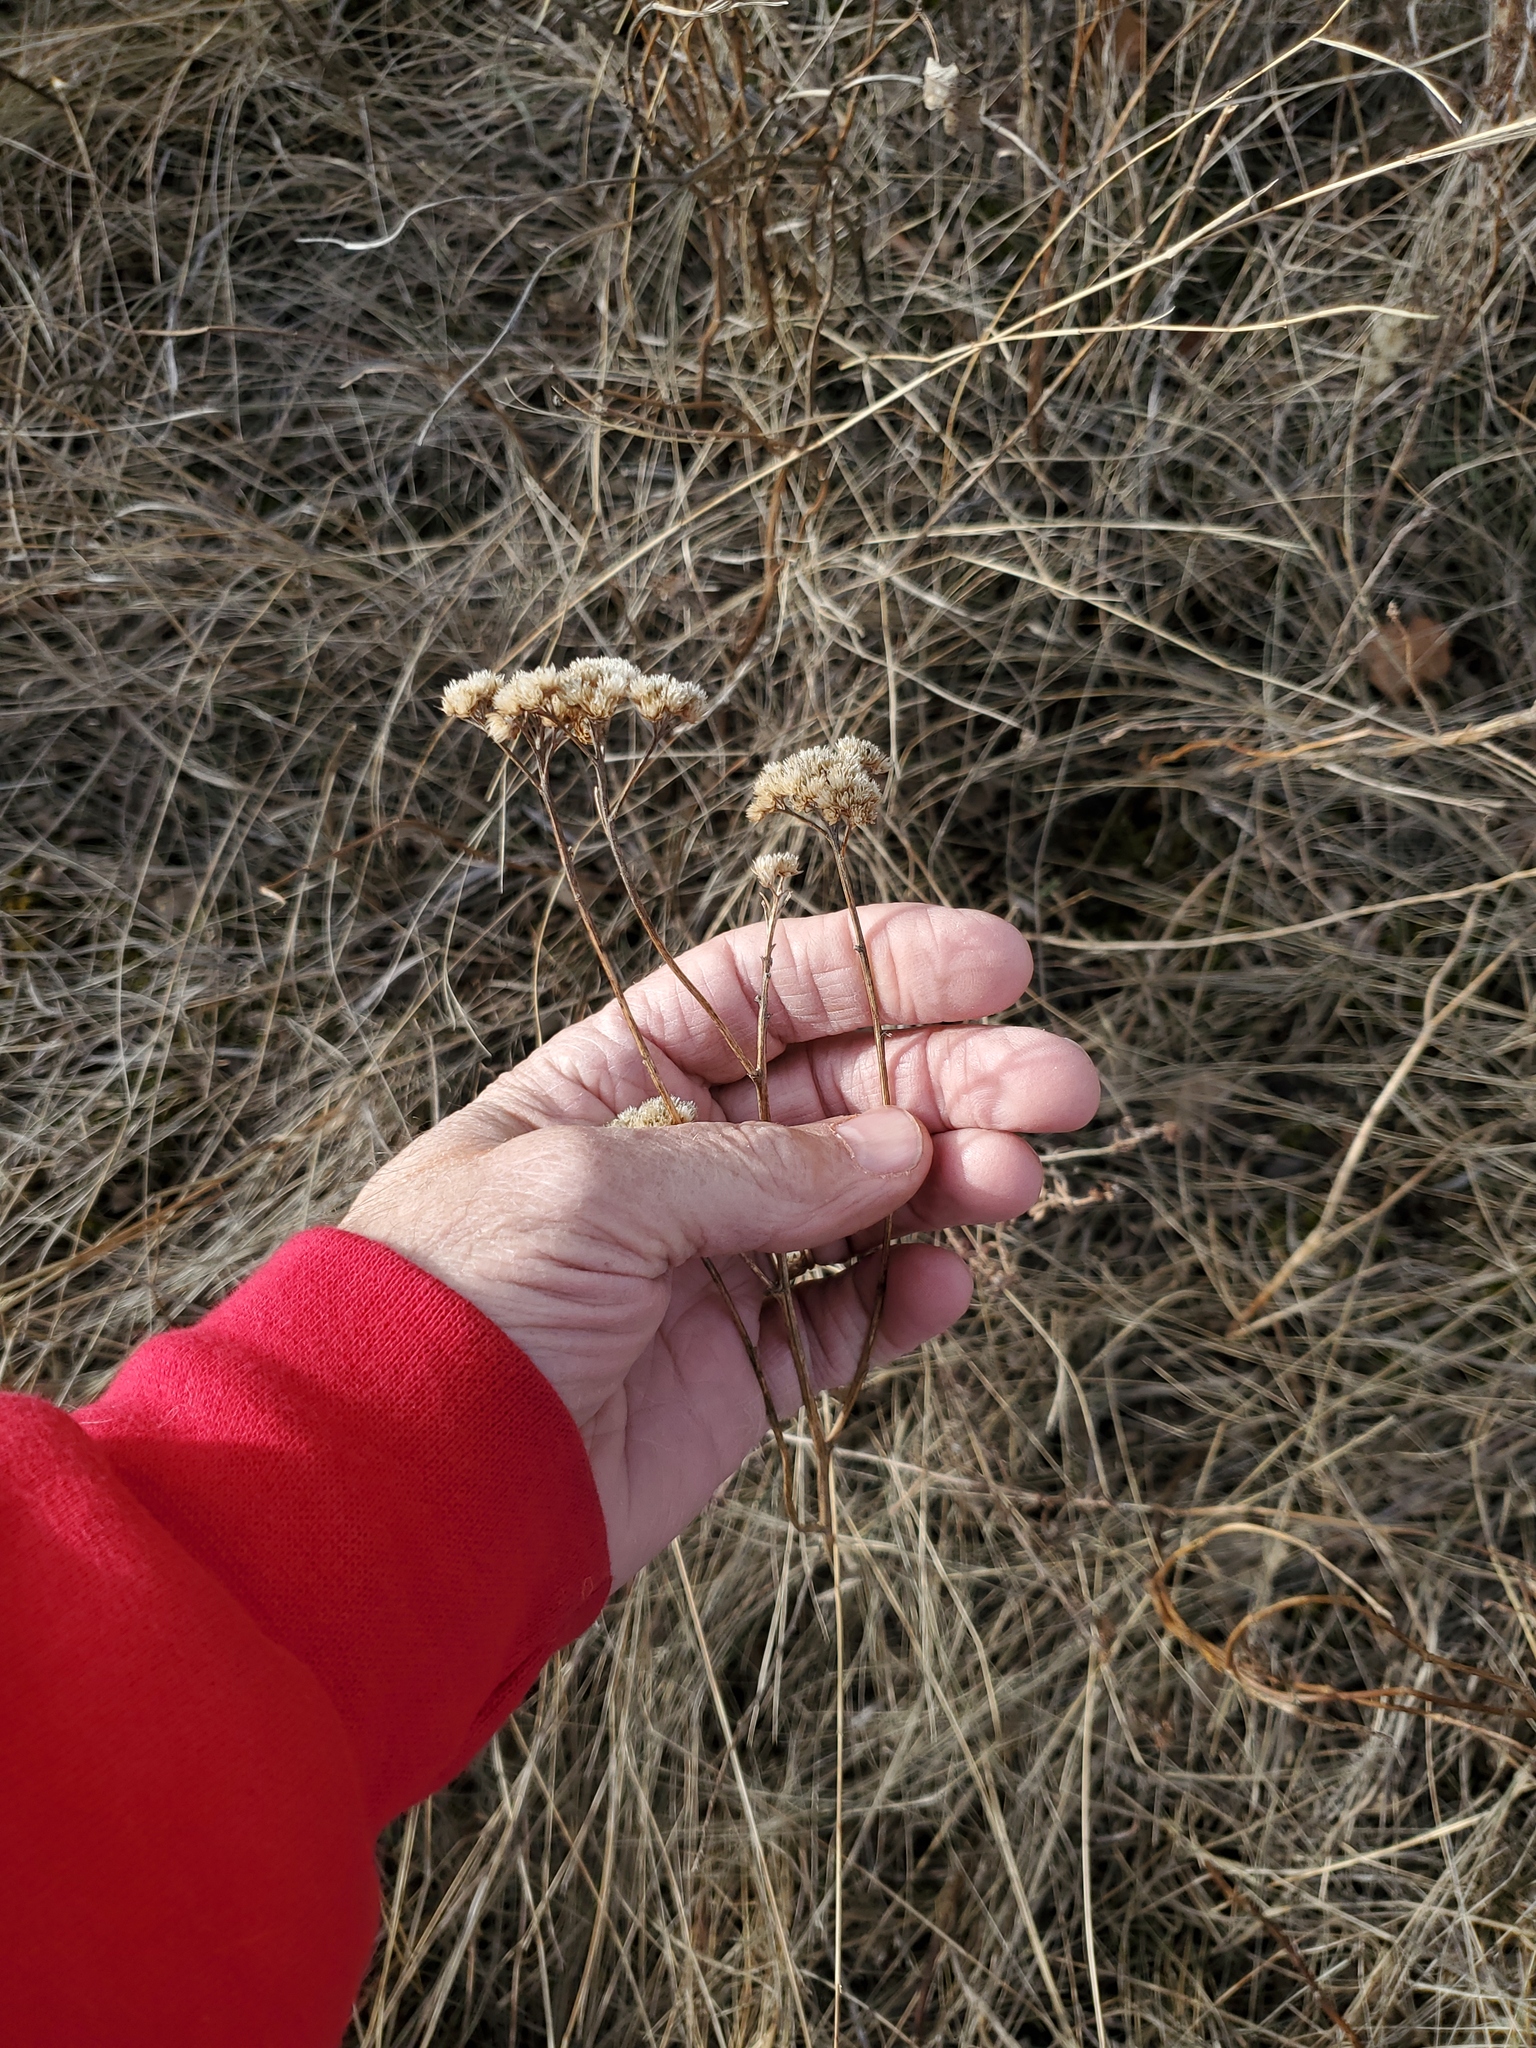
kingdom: Plantae
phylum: Tracheophyta
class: Magnoliopsida
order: Asterales
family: Asteraceae
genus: Achillea
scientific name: Achillea millefolium
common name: Yarrow
